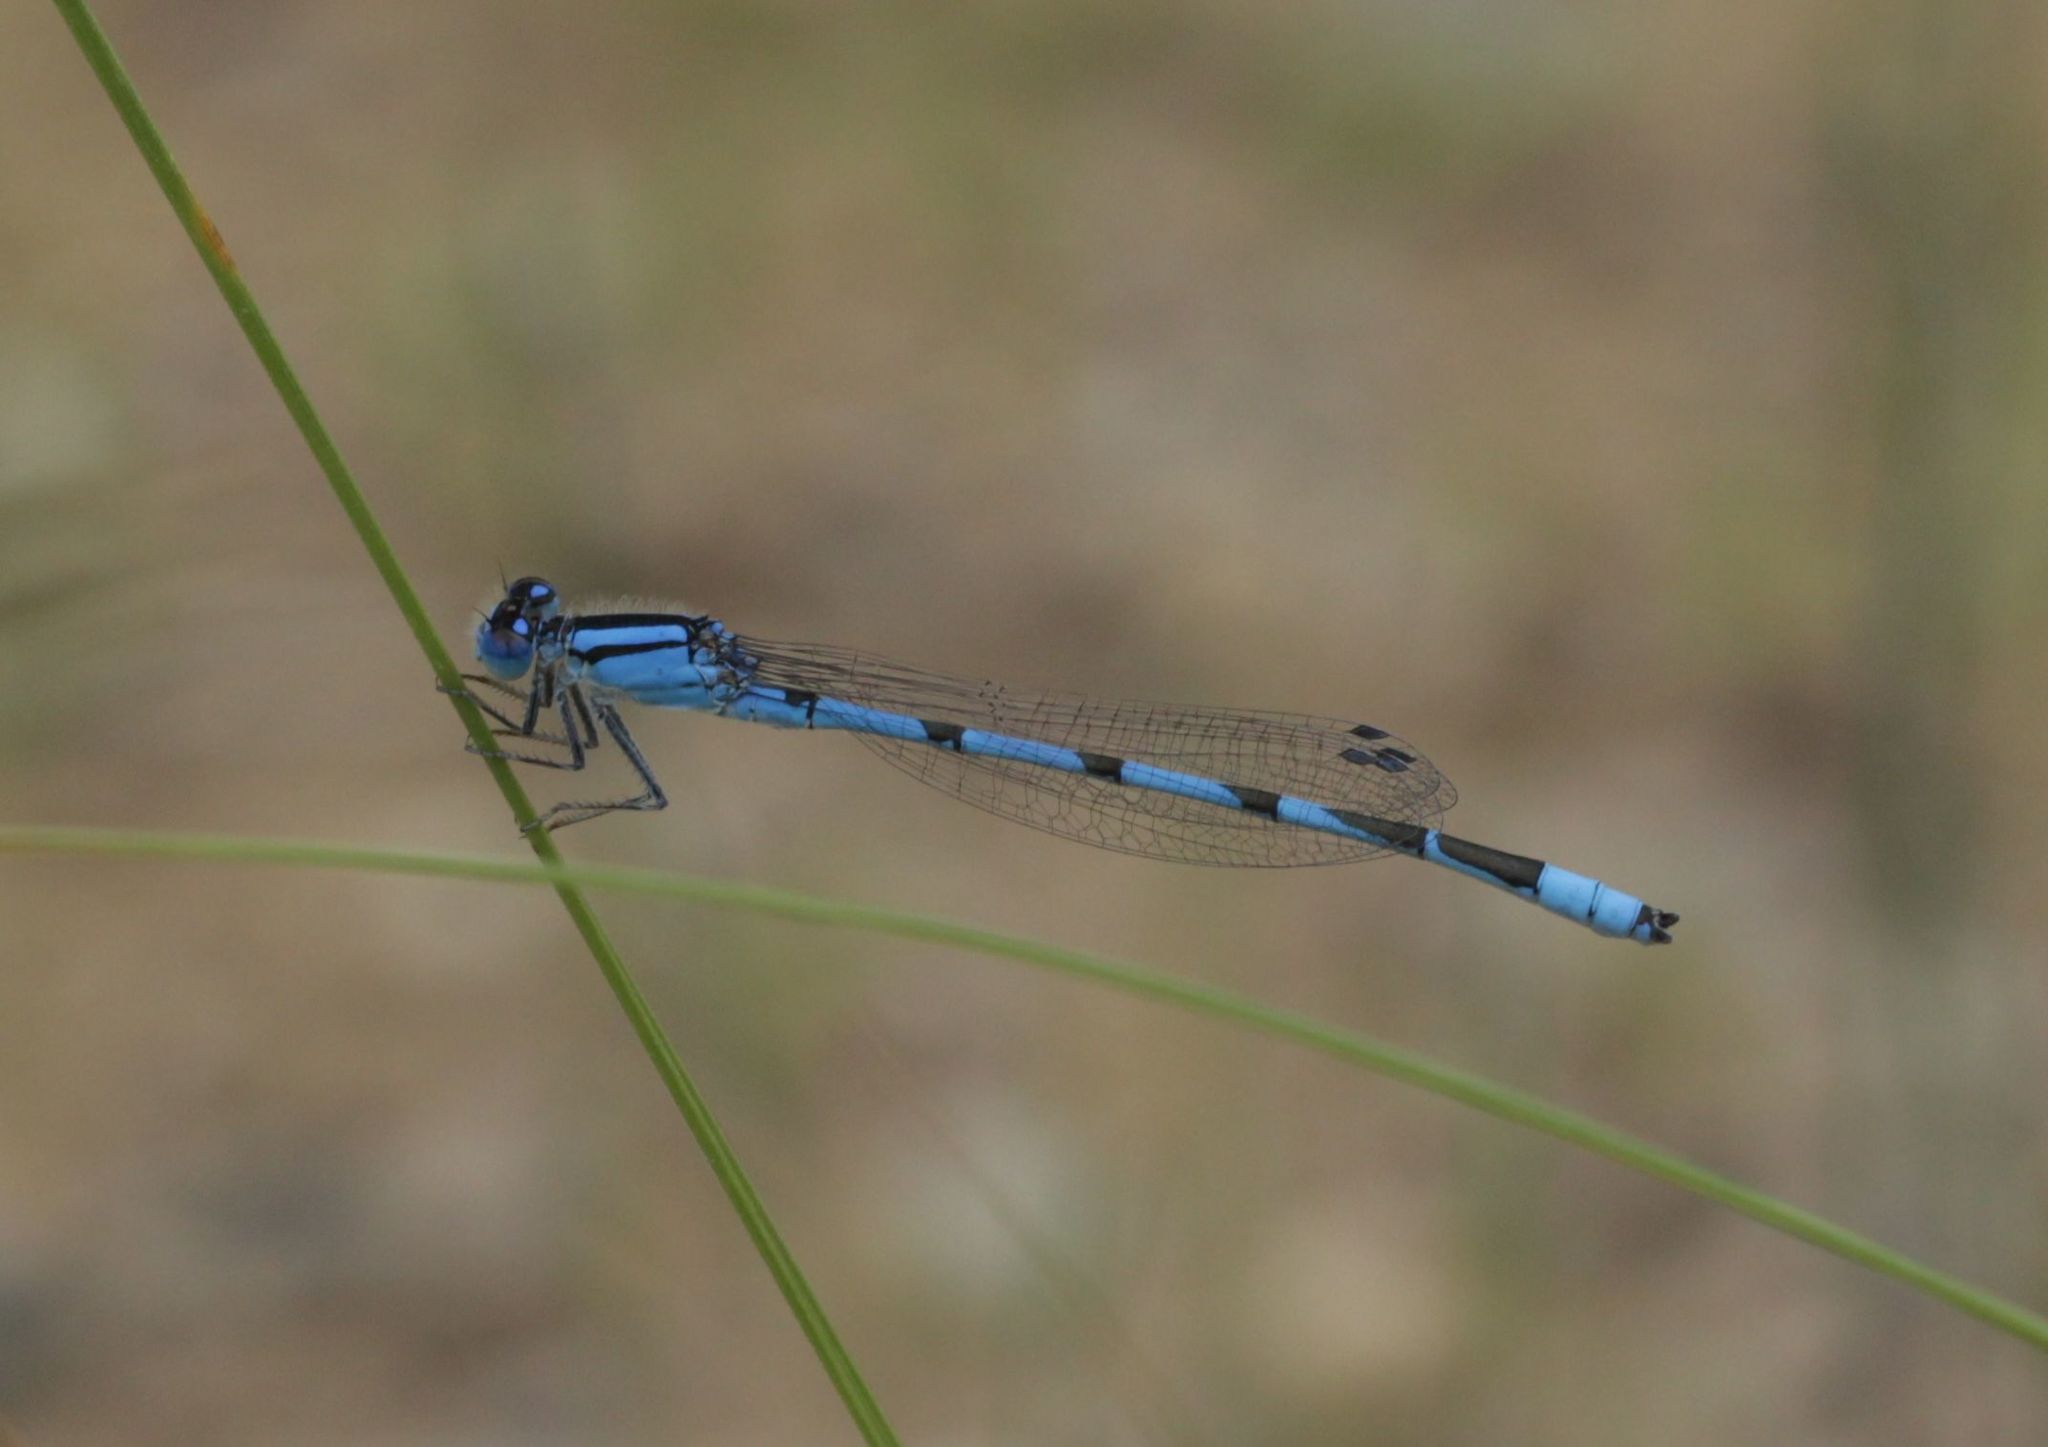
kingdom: Animalia
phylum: Arthropoda
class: Insecta
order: Odonata
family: Coenagrionidae
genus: Enallagma
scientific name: Enallagma civile
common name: Damselfly
